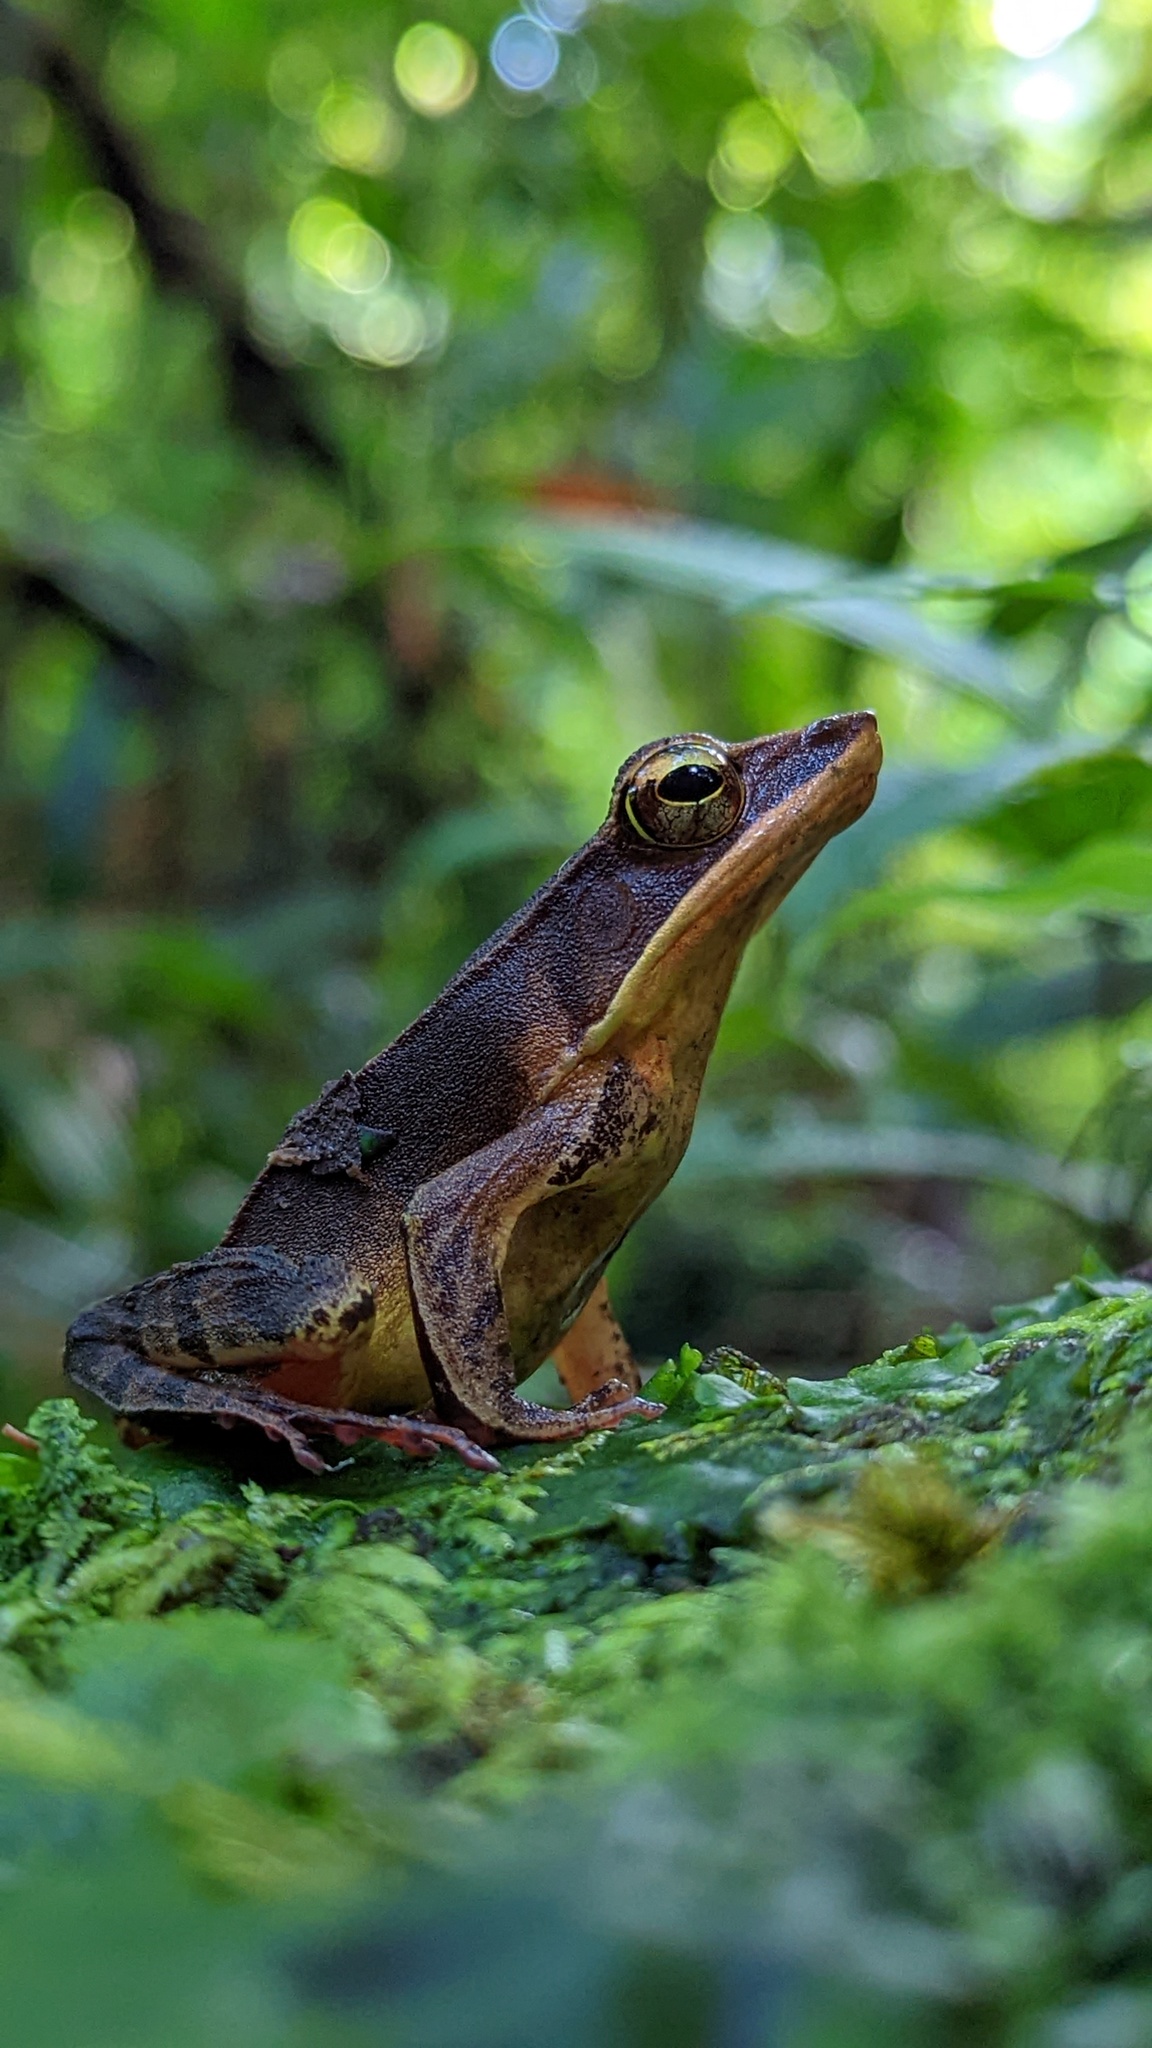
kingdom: Animalia
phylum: Chordata
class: Amphibia
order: Anura
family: Ranidae
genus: Lithobates
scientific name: Lithobates warszewitschii
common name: Warszewitsch's frog
